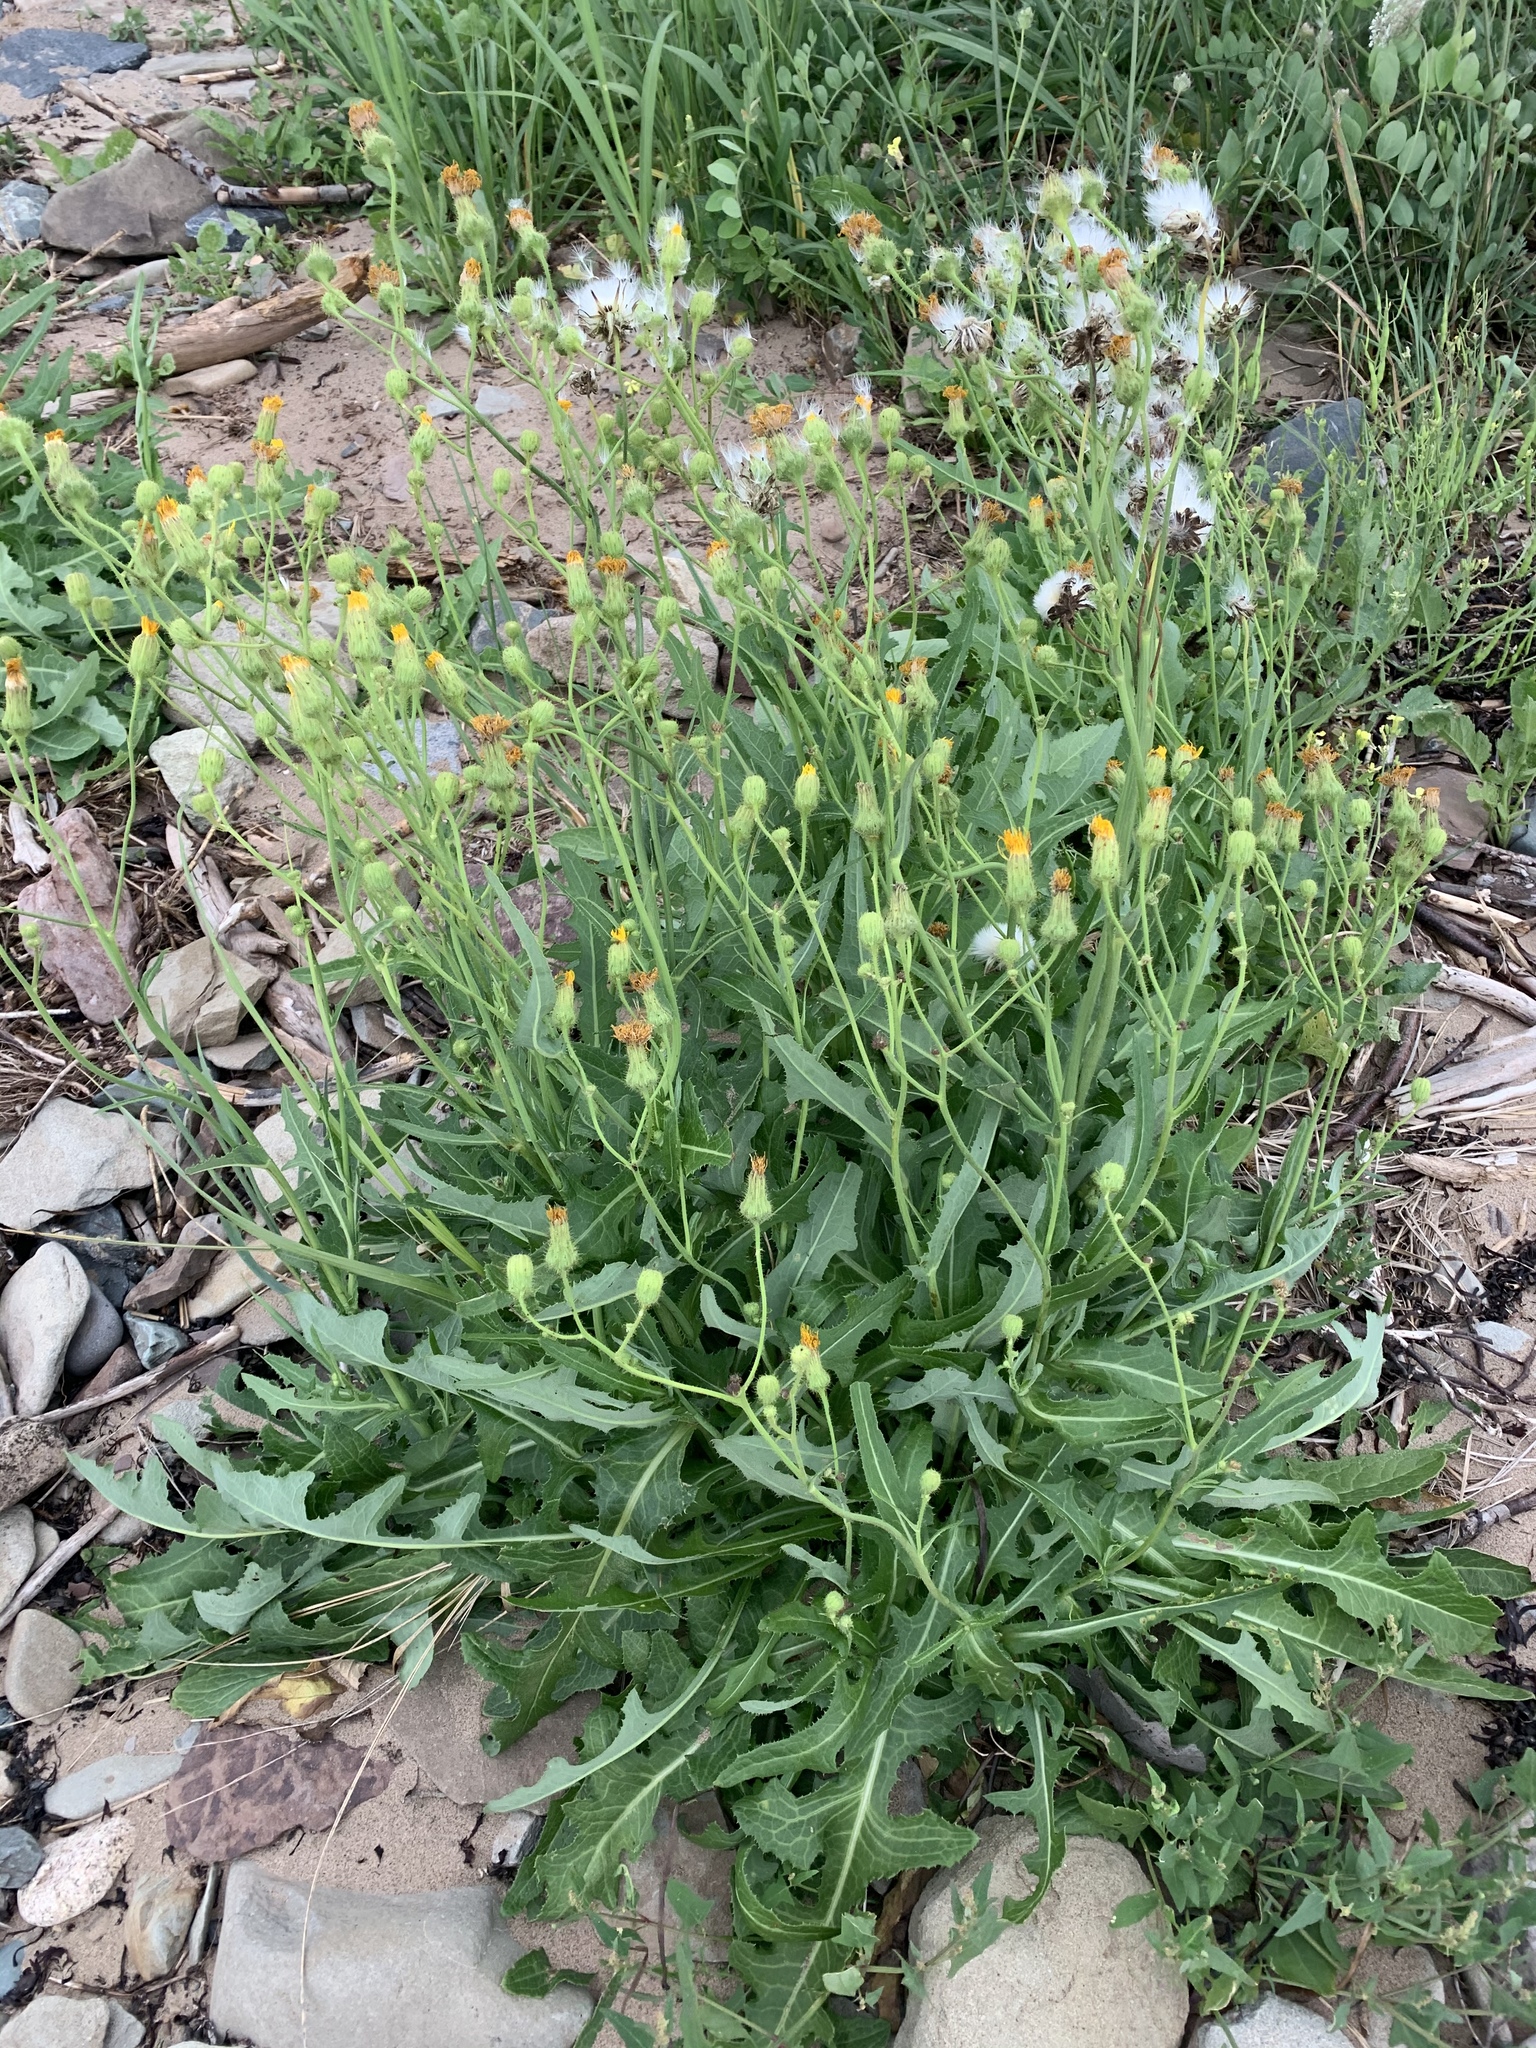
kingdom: Plantae
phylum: Tracheophyta
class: Magnoliopsida
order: Asterales
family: Asteraceae
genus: Sonchus
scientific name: Sonchus arvensis
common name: Perennial sow-thistle
